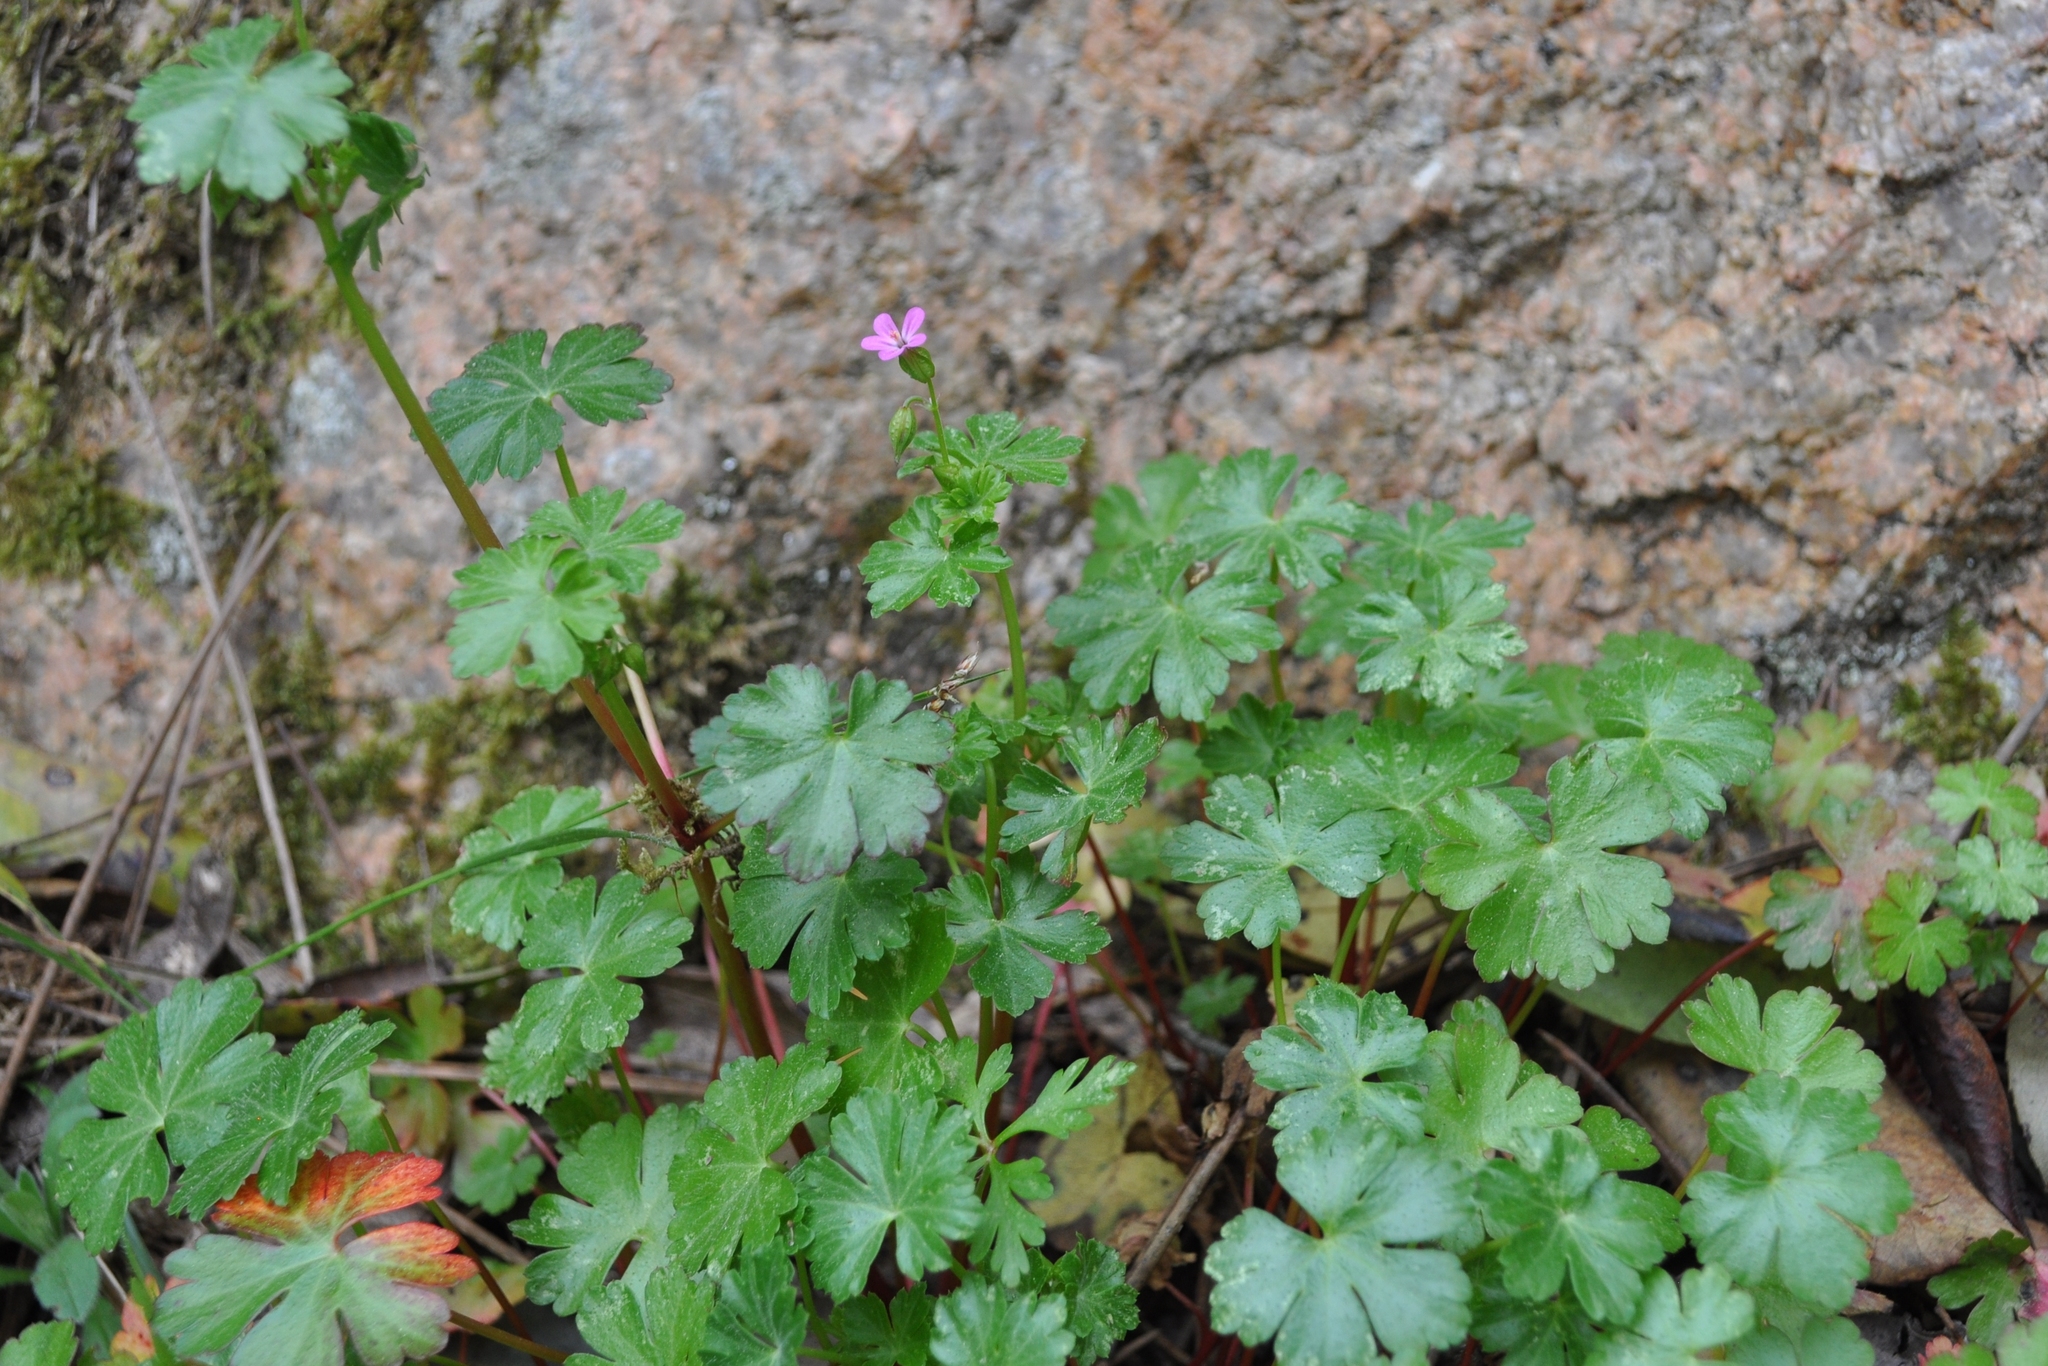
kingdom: Plantae
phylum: Tracheophyta
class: Magnoliopsida
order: Geraniales
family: Geraniaceae
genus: Geranium
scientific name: Geranium lucidum
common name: Shining crane's-bill
